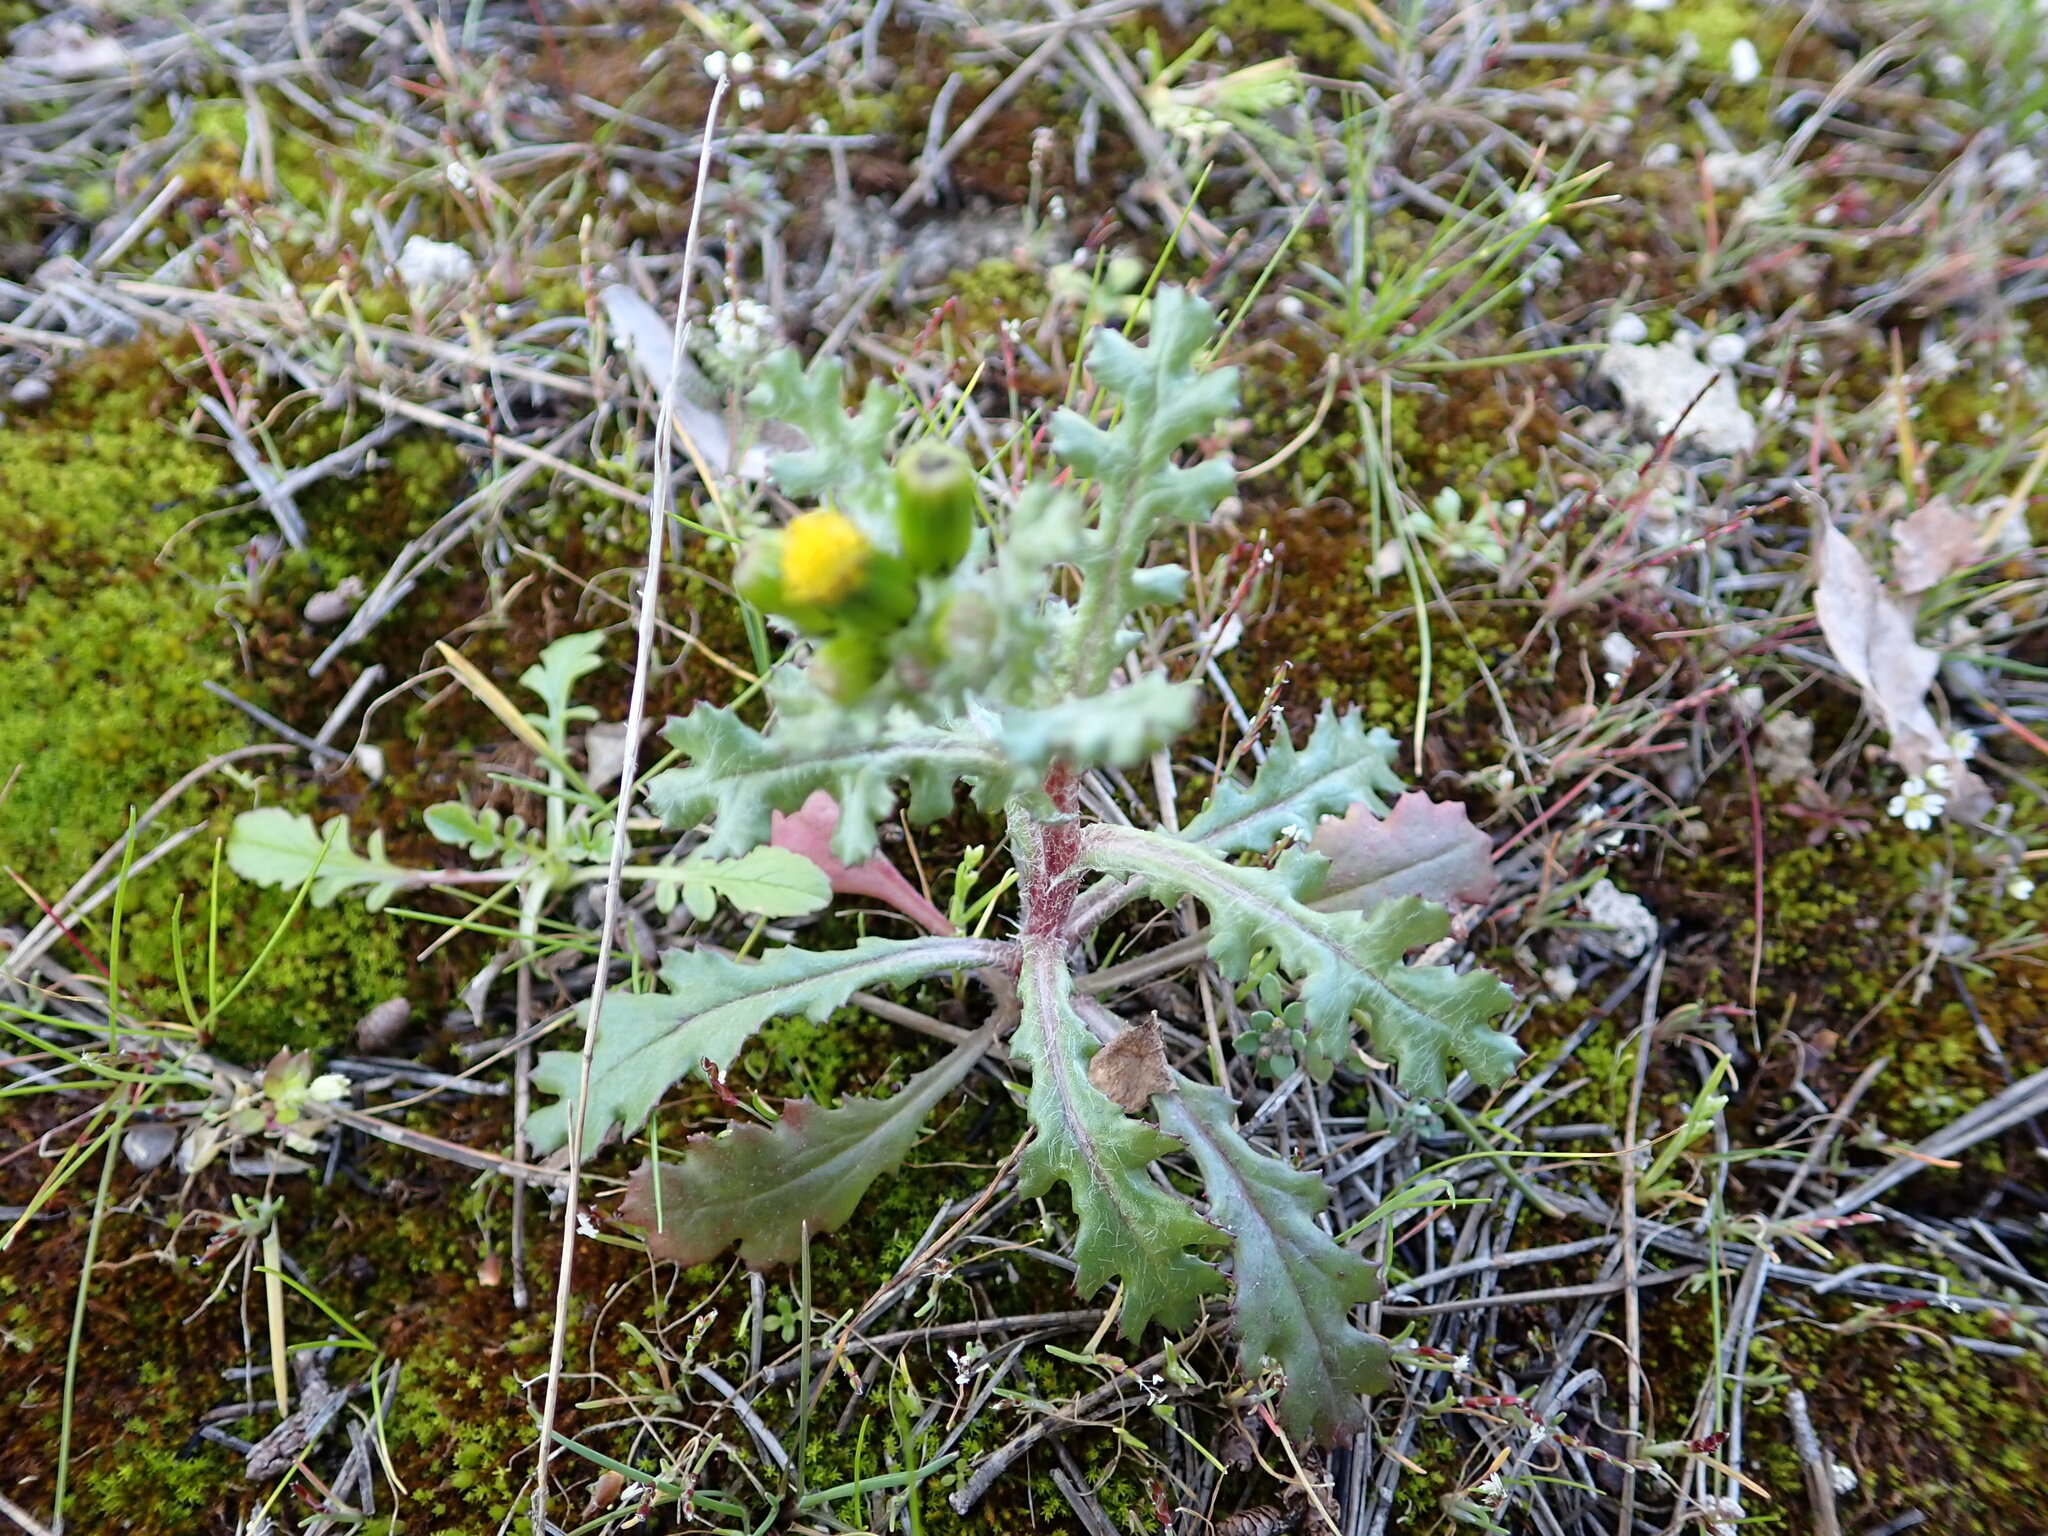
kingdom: Plantae
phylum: Tracheophyta
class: Magnoliopsida
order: Asterales
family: Asteraceae
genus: Senecio
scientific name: Senecio vulgaris
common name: Old-man-in-the-spring
